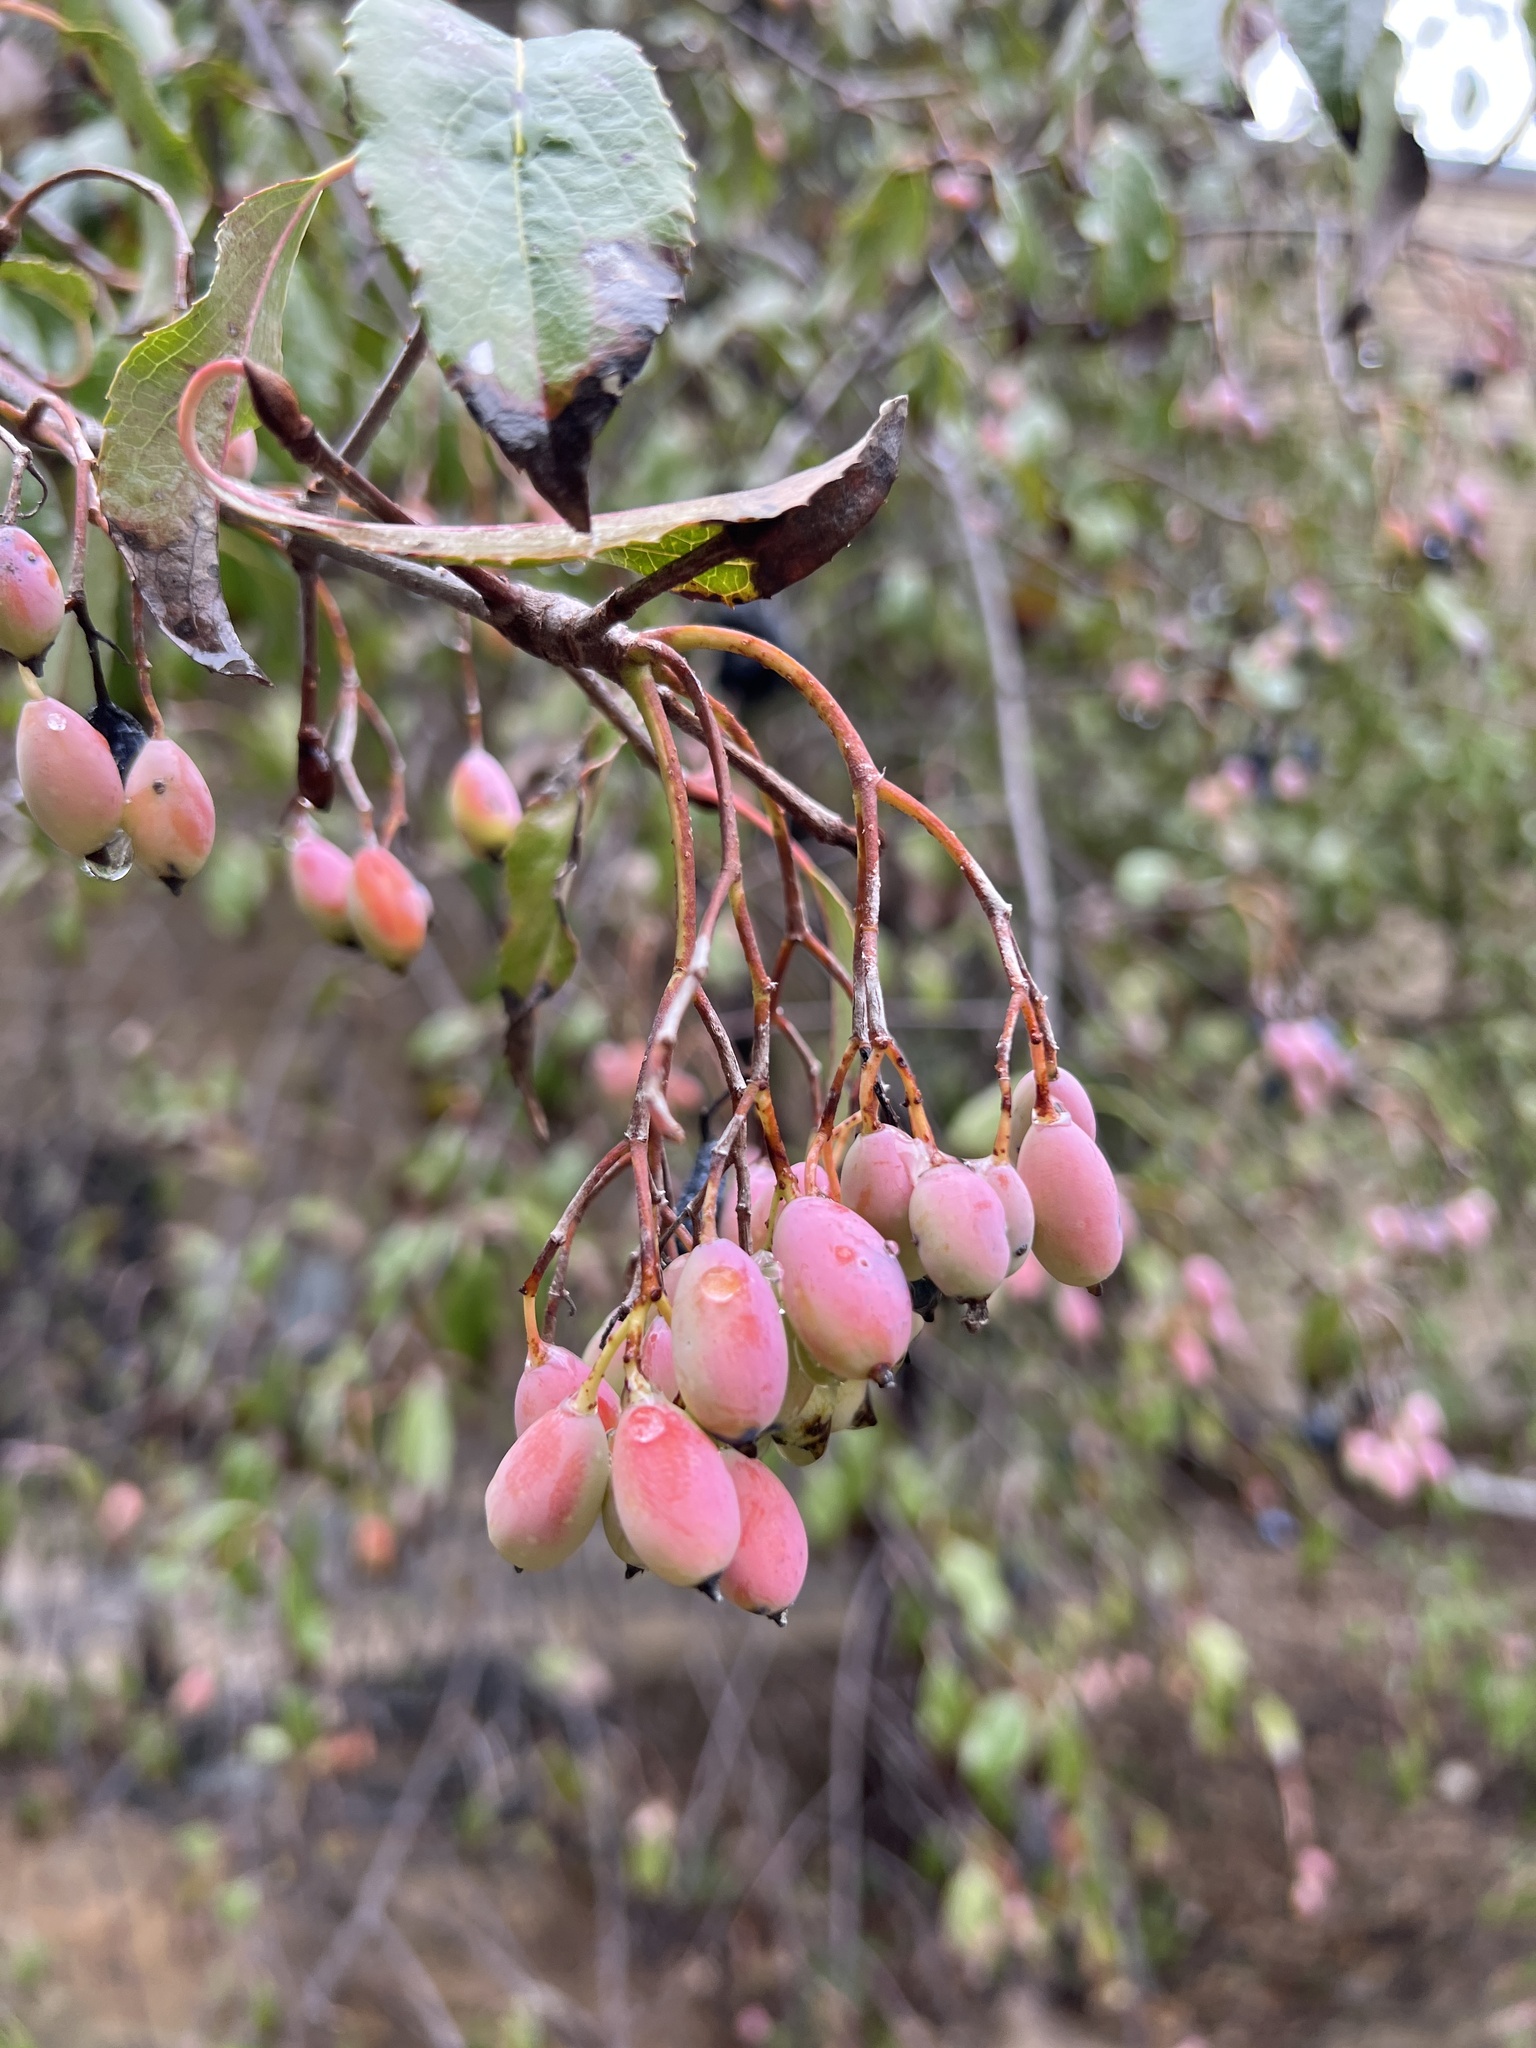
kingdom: Plantae
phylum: Tracheophyta
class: Magnoliopsida
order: Dipsacales
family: Viburnaceae
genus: Viburnum
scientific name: Viburnum rufidulum
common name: Blue haw
